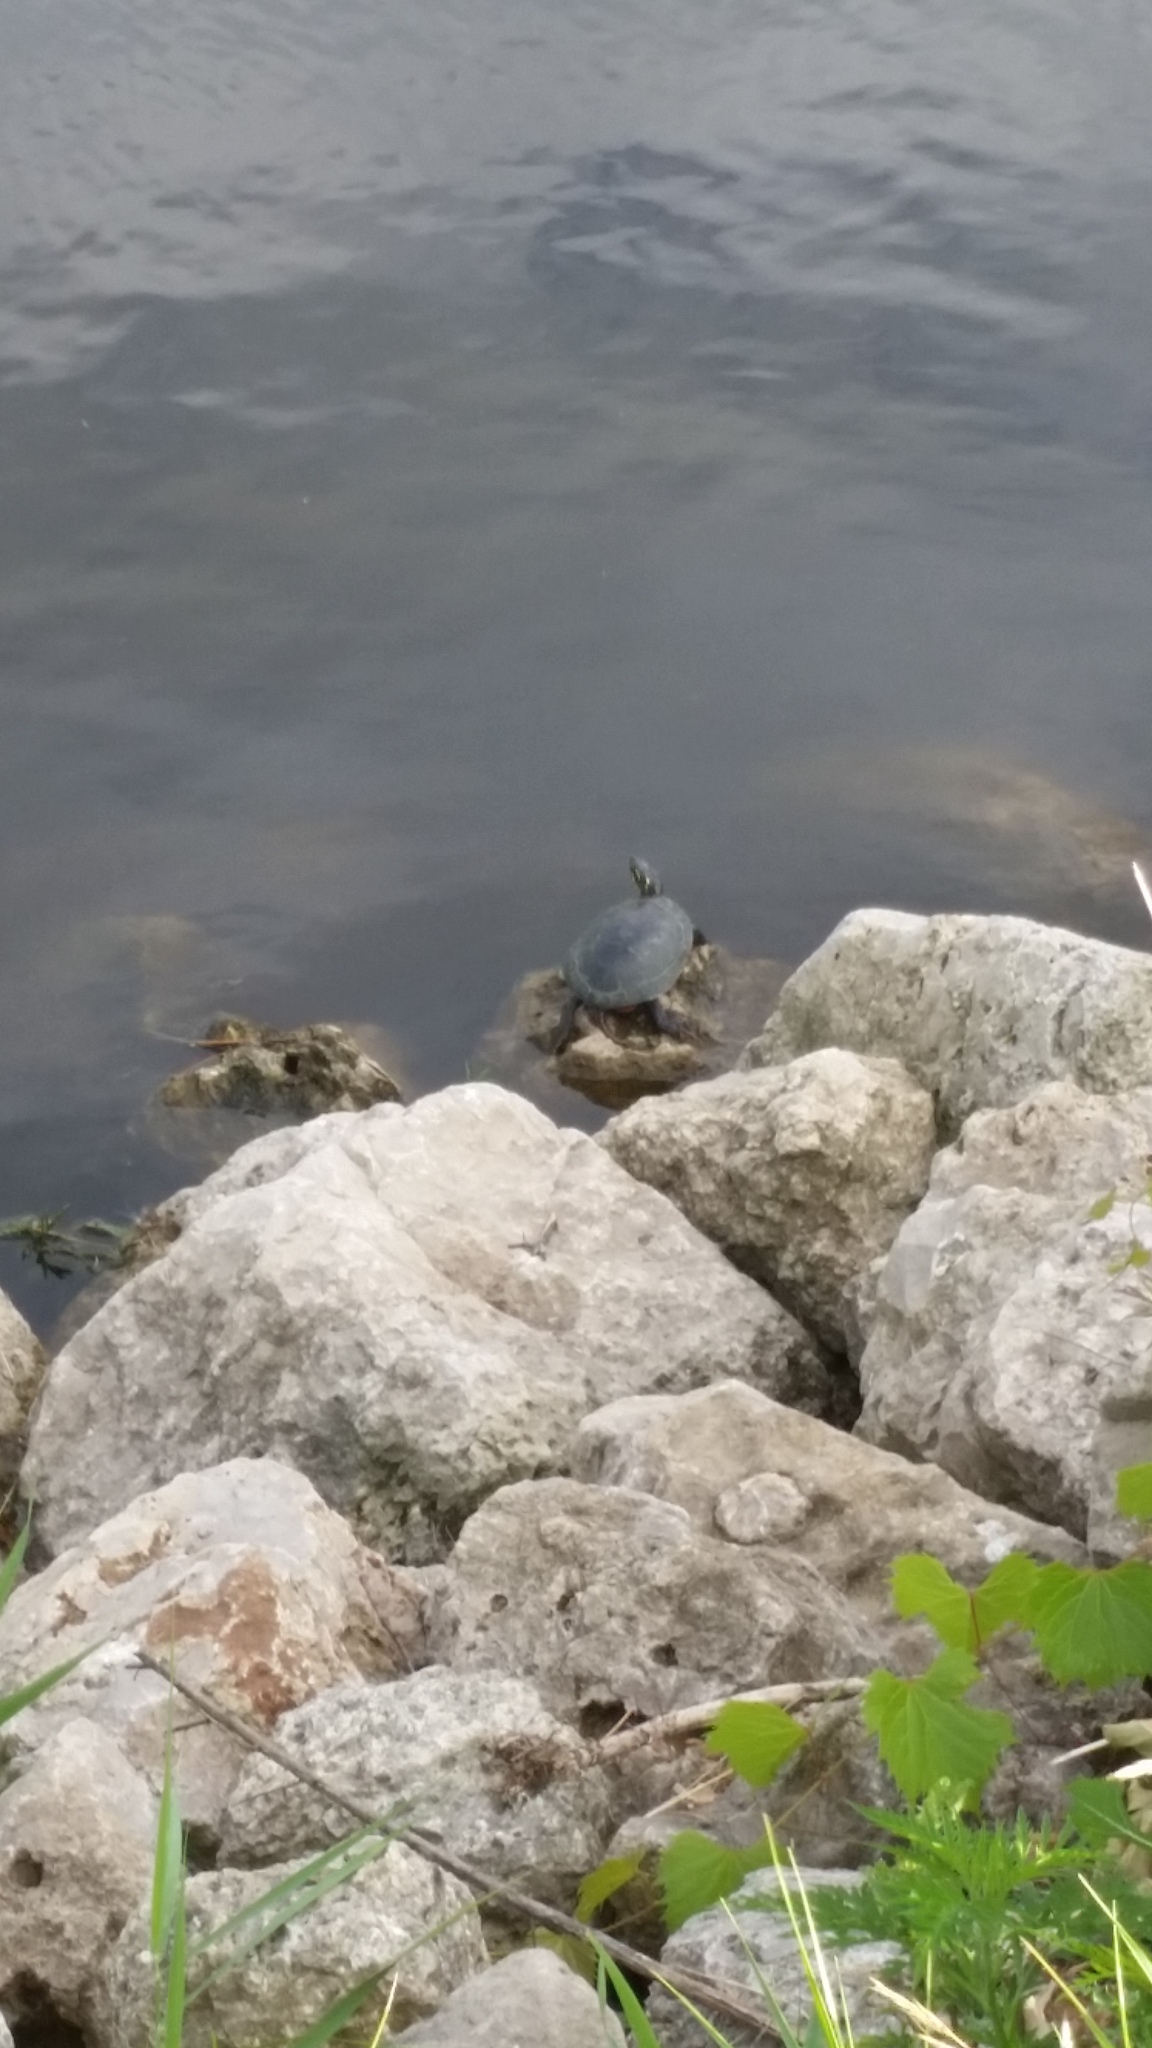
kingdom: Animalia
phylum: Chordata
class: Testudines
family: Emydidae
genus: Chrysemys
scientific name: Chrysemys picta
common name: Painted turtle
